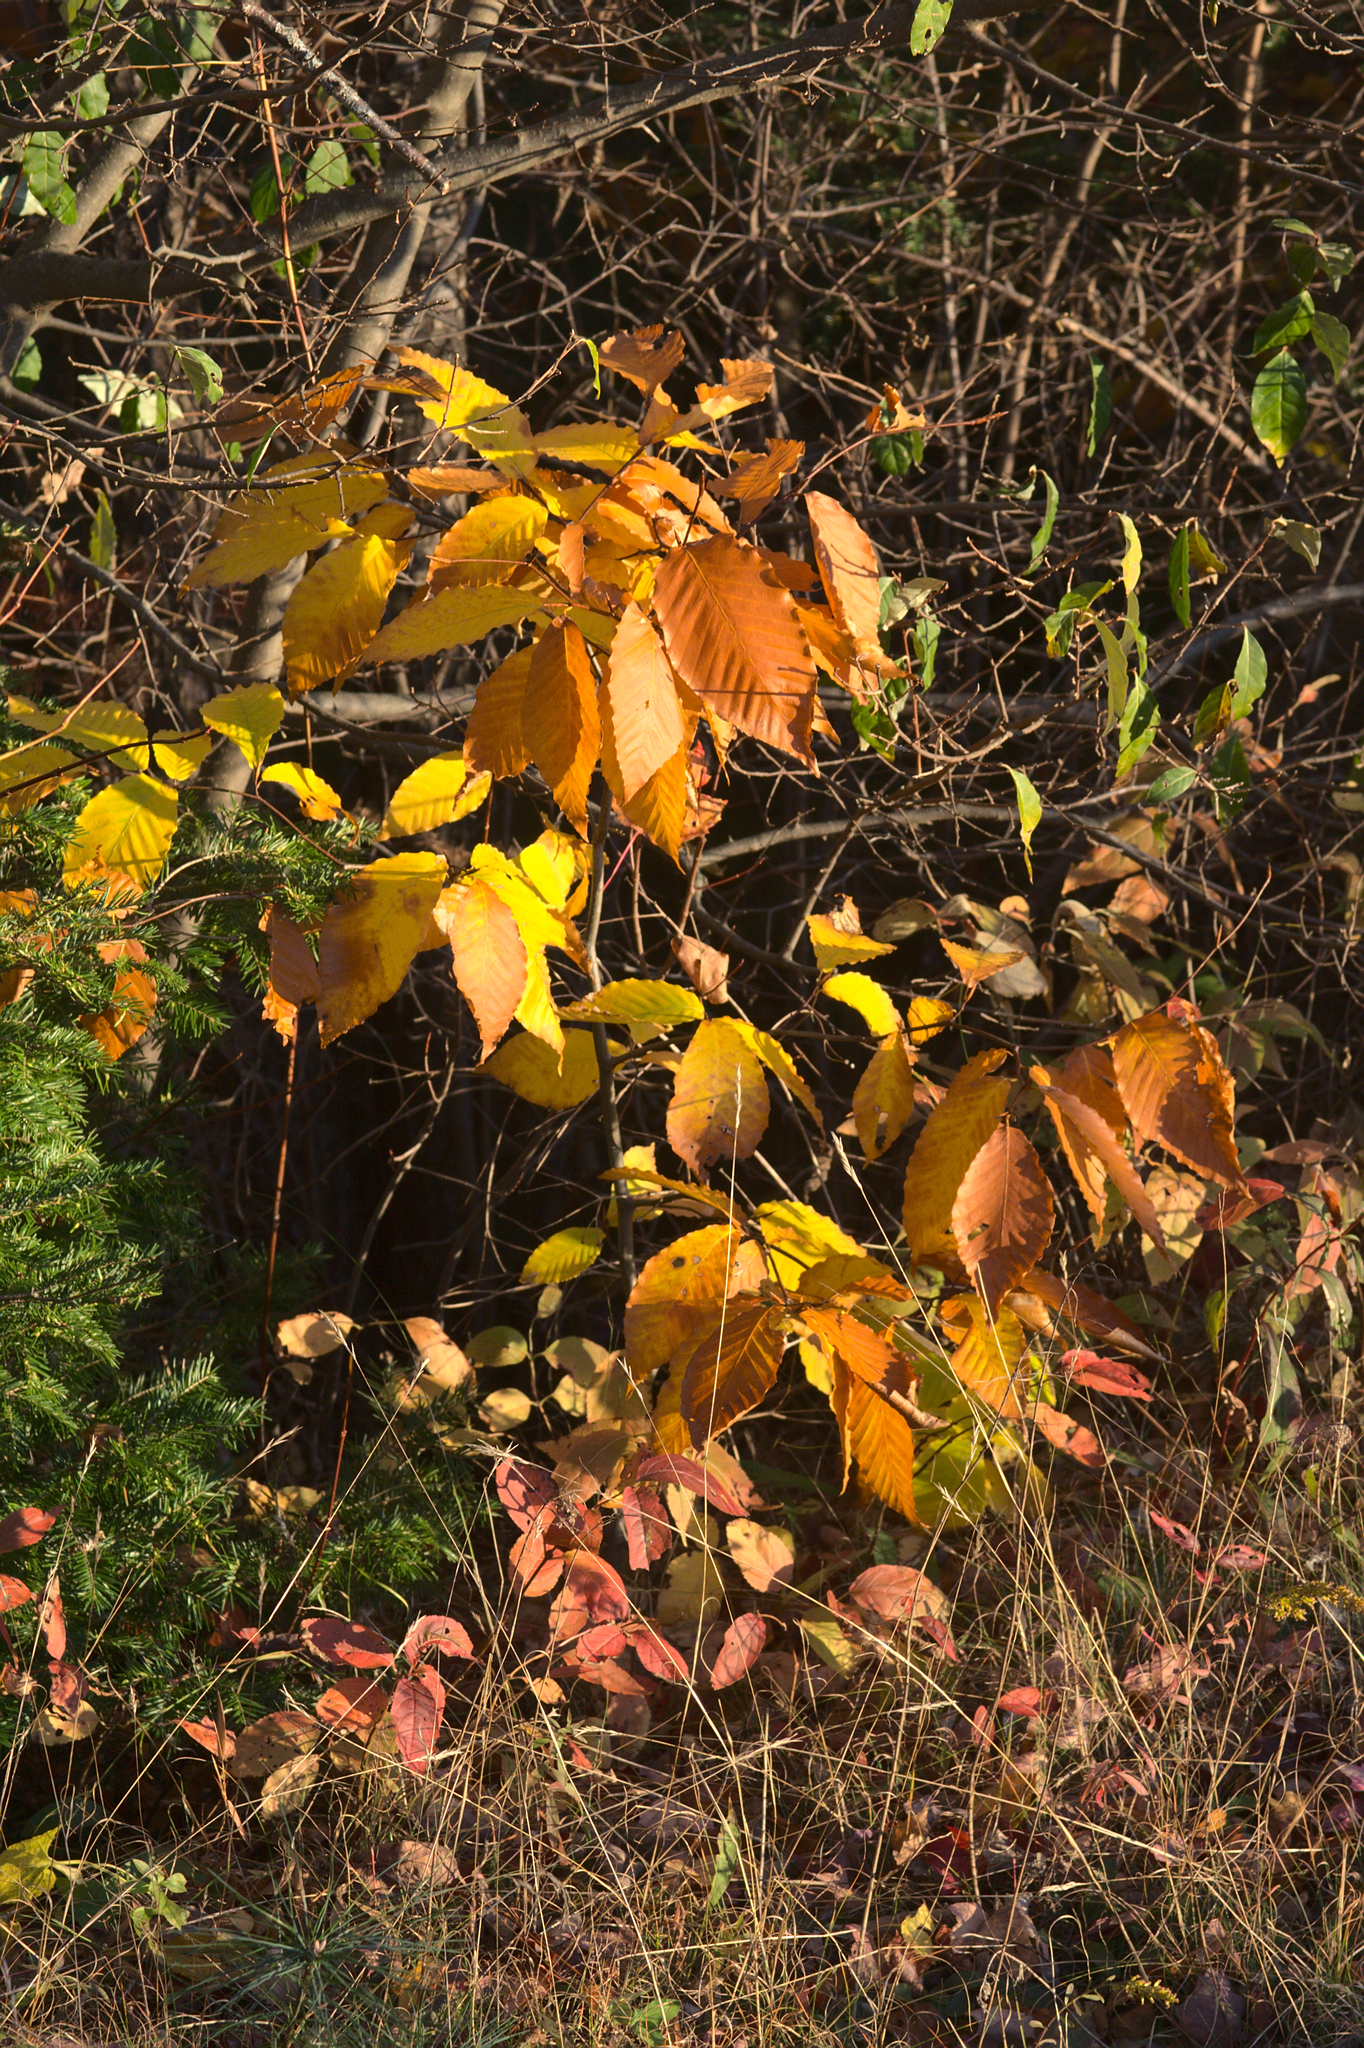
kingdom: Plantae
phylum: Tracheophyta
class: Magnoliopsida
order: Fagales
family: Fagaceae
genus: Fagus
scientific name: Fagus grandifolia
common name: American beech
